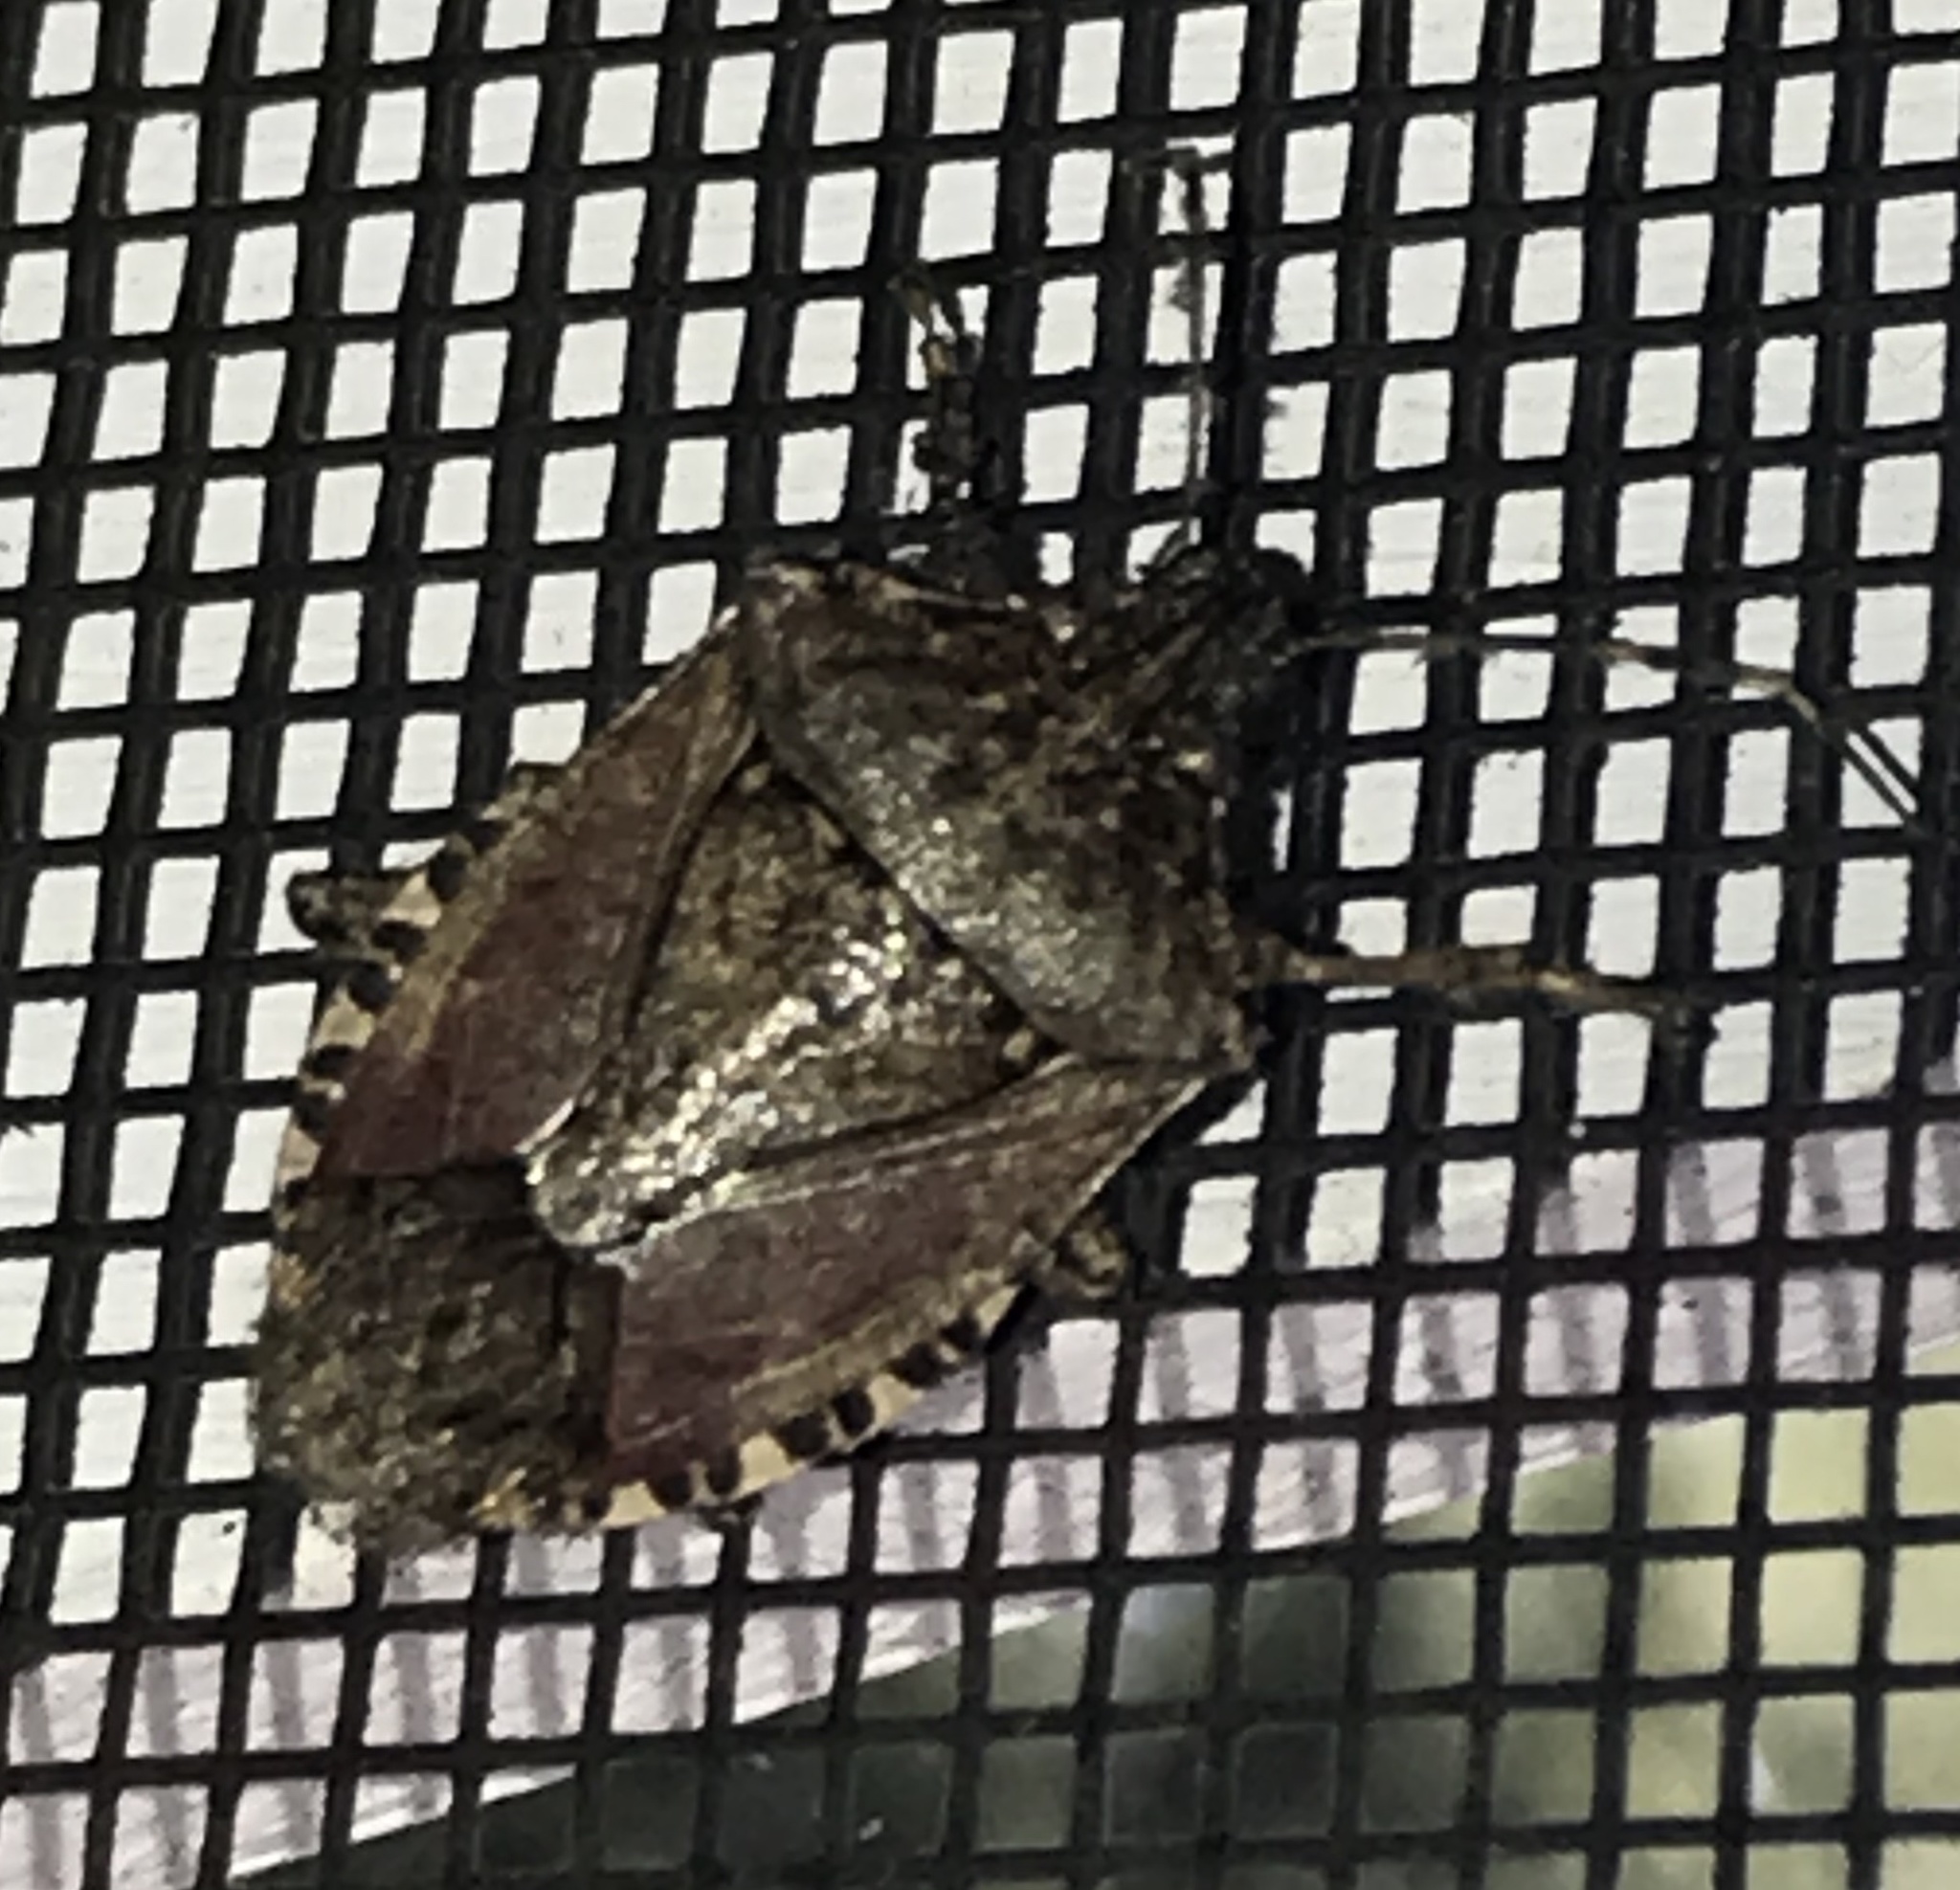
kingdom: Animalia
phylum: Arthropoda
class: Insecta
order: Hemiptera
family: Pentatomidae
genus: Halyomorpha
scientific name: Halyomorpha halys
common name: Brown marmorated stink bug
